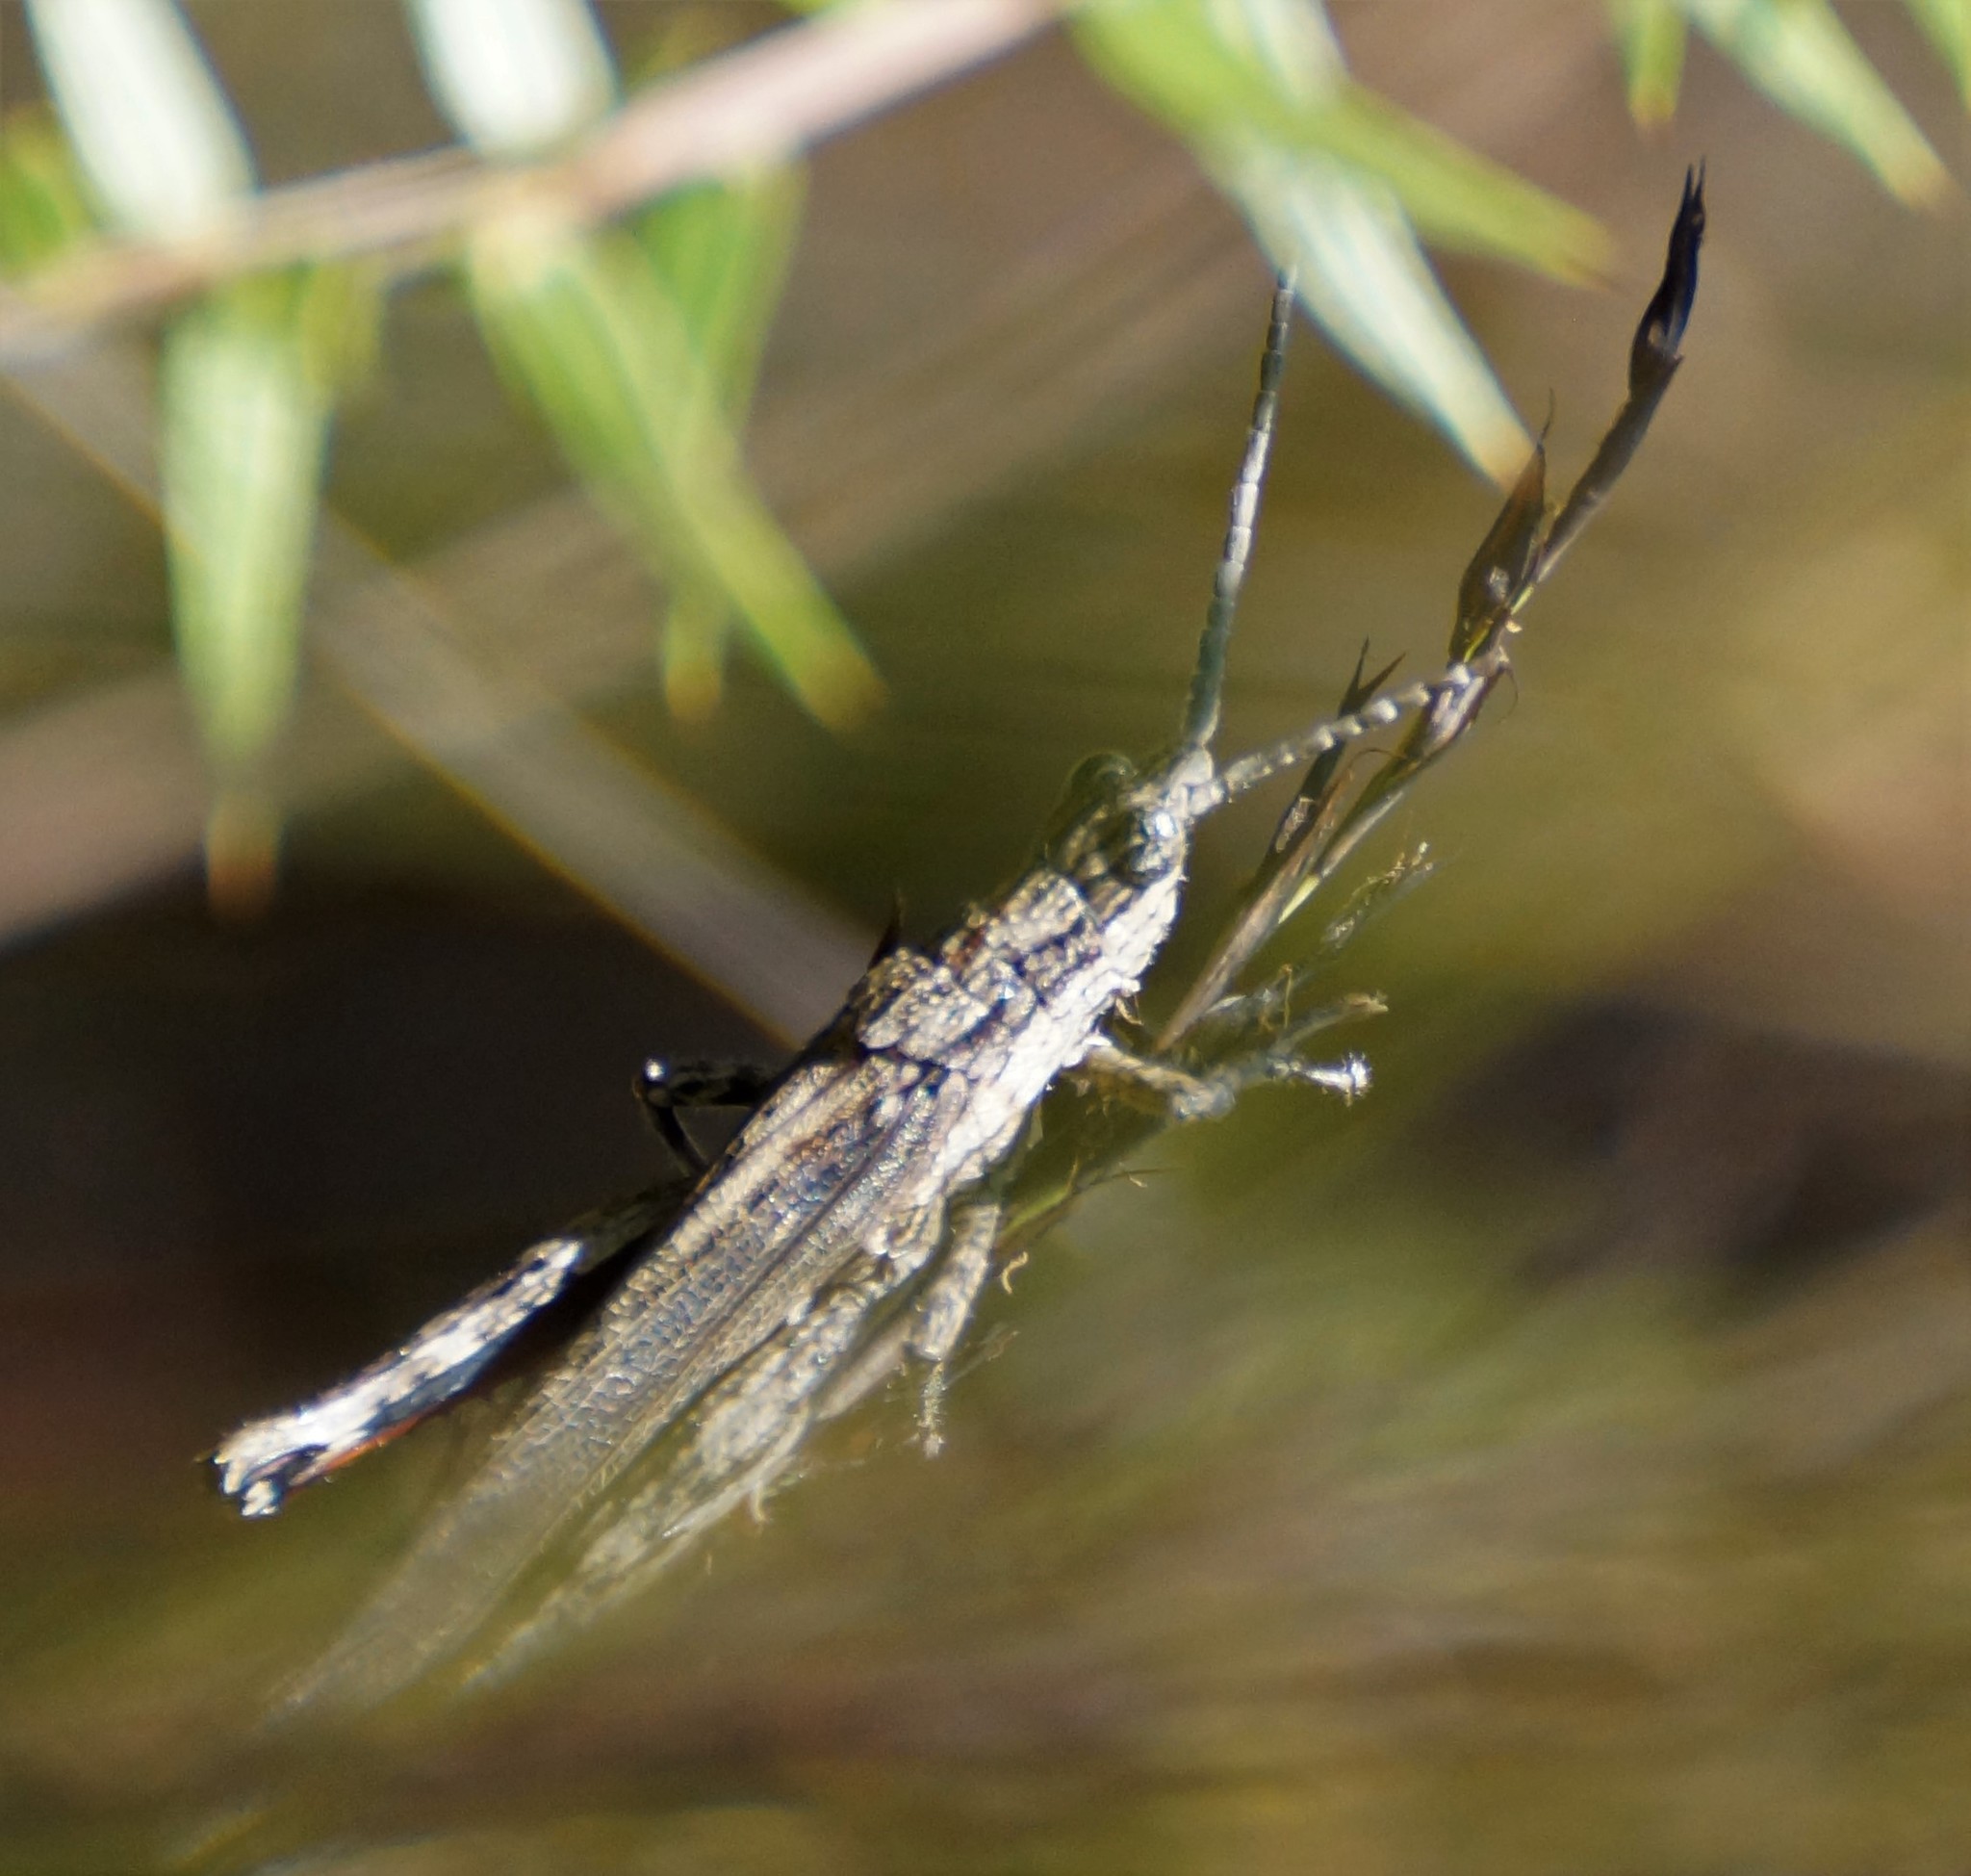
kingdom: Animalia
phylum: Arthropoda
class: Insecta
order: Orthoptera
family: Acrididae
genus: Coryphistes
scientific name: Coryphistes ruricola
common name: Bark-mimicking grasshopper
